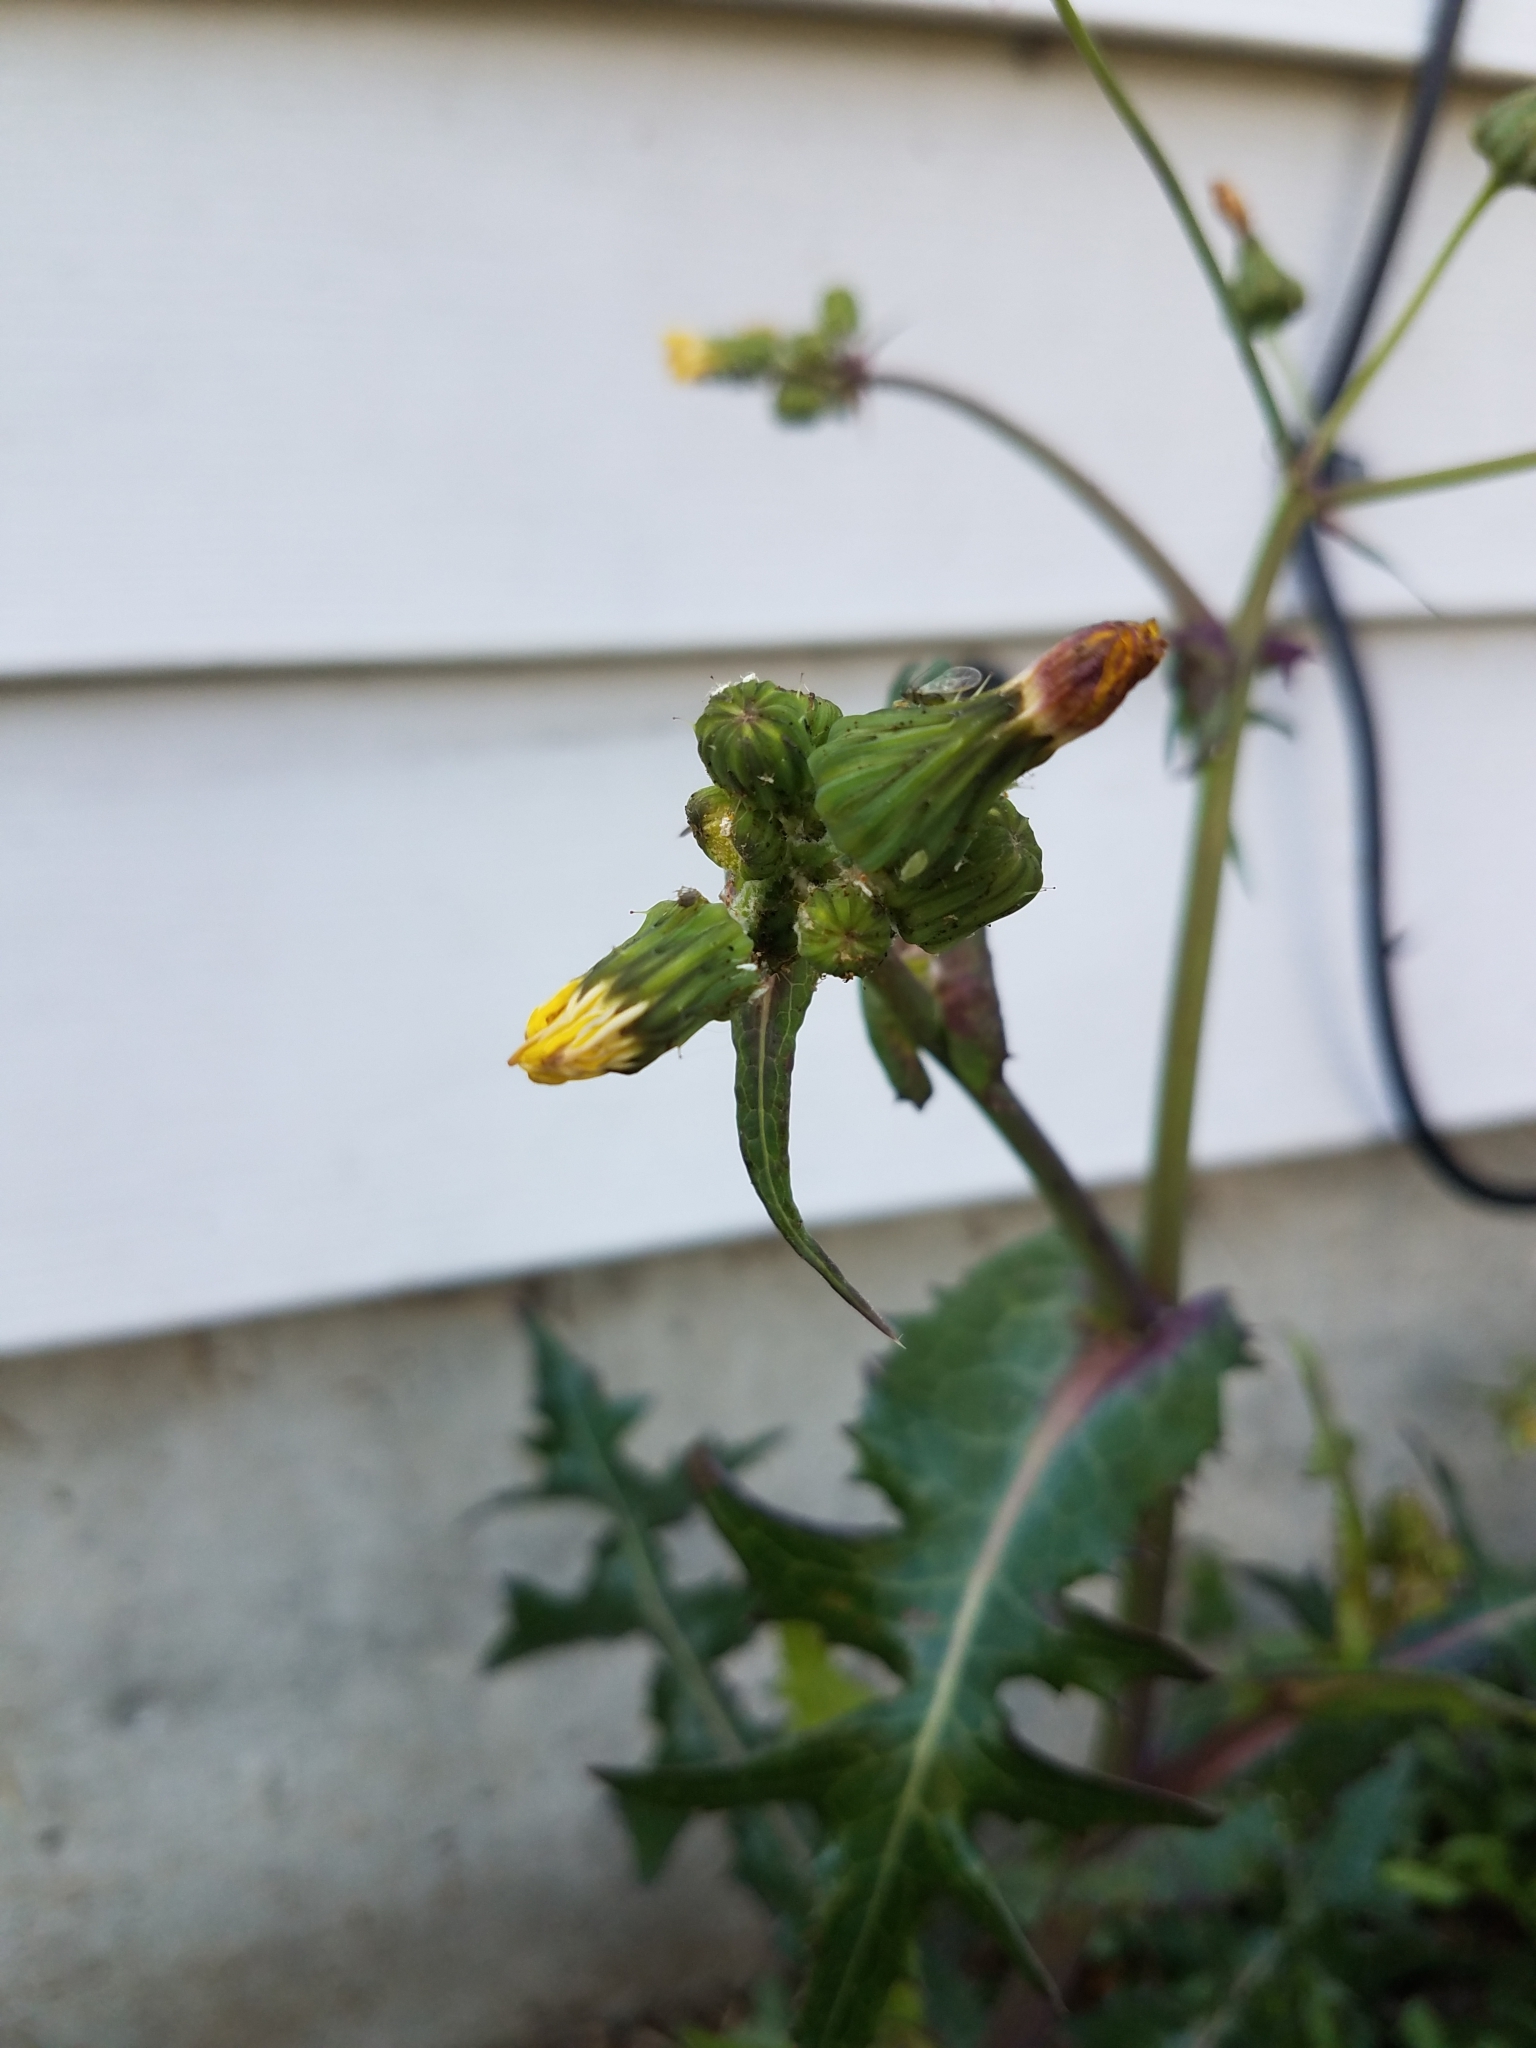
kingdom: Plantae
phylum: Tracheophyta
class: Magnoliopsida
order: Asterales
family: Asteraceae
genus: Sonchus
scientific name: Sonchus oleraceus
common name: Common sowthistle
